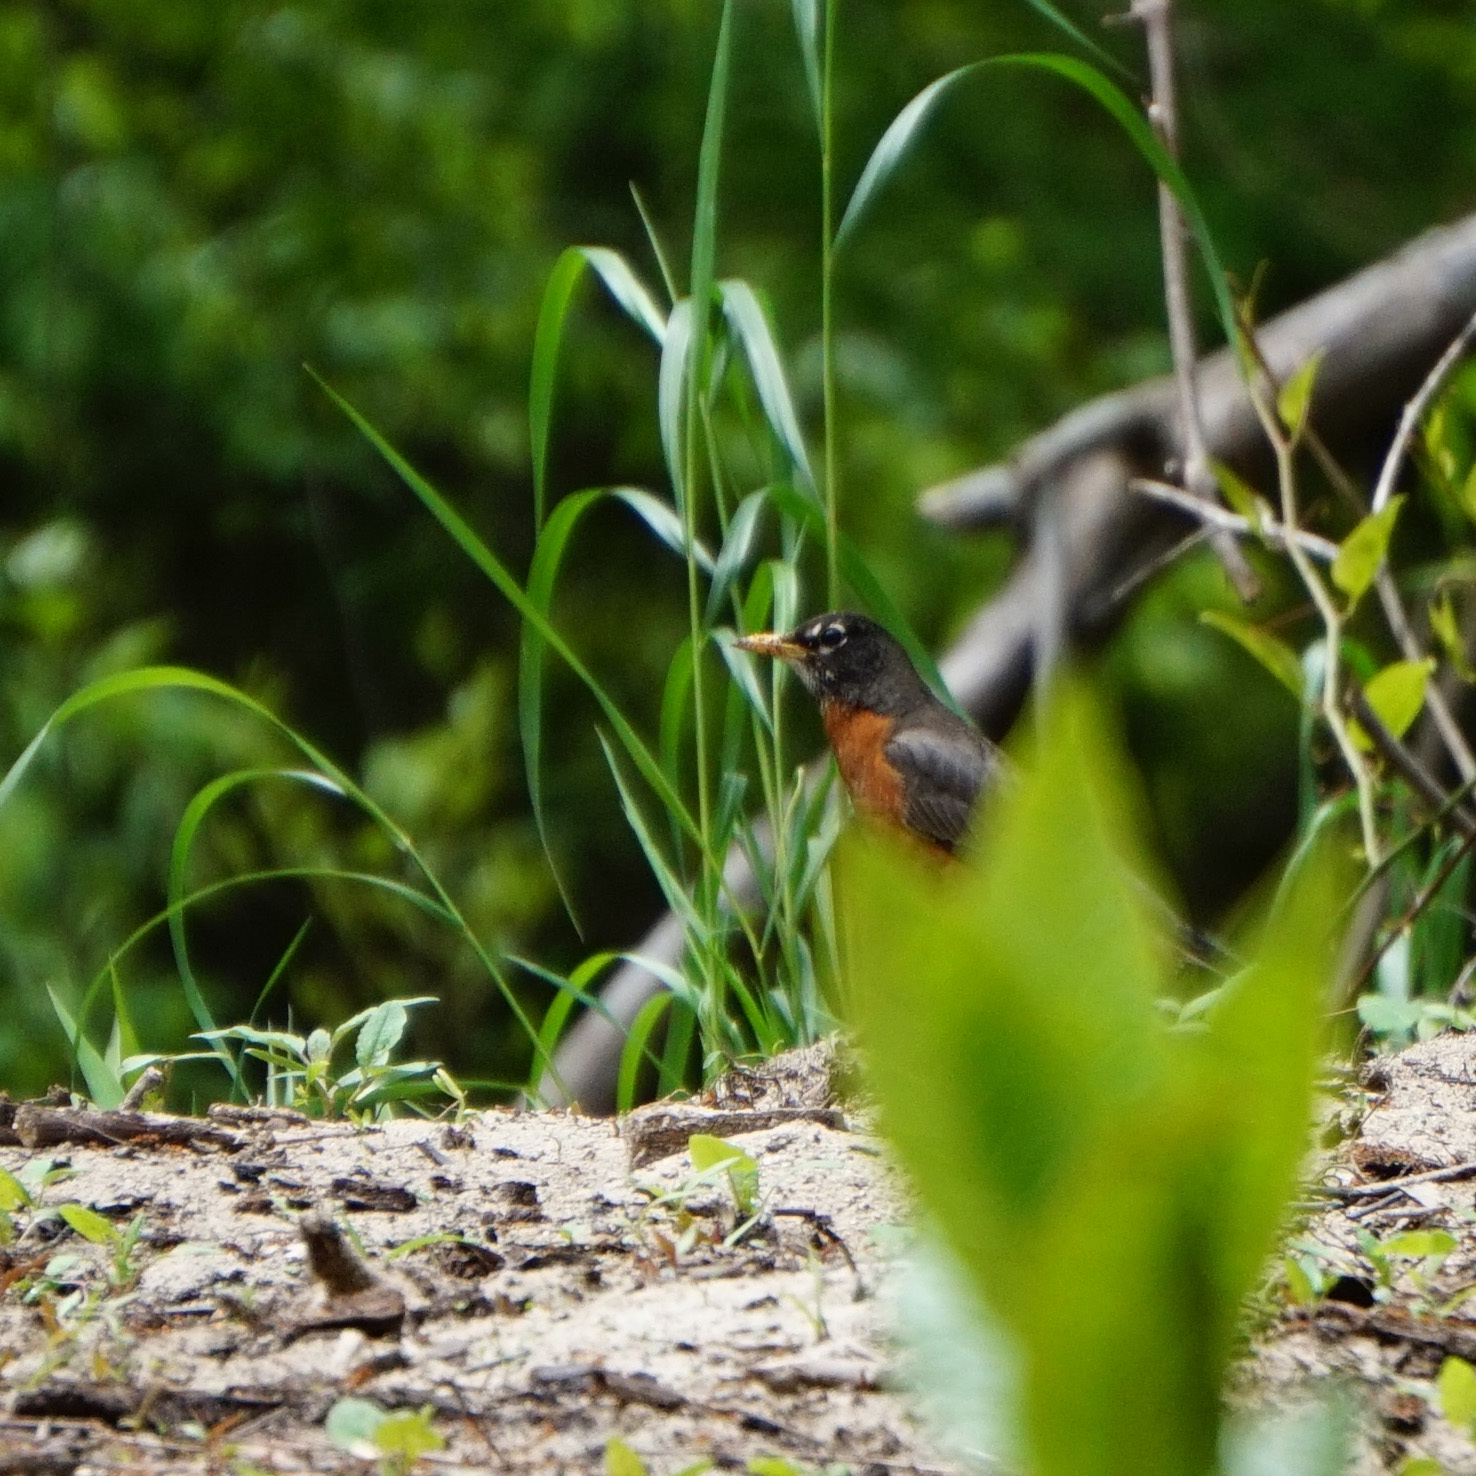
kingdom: Animalia
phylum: Chordata
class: Aves
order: Passeriformes
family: Turdidae
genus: Turdus
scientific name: Turdus migratorius
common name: American robin
